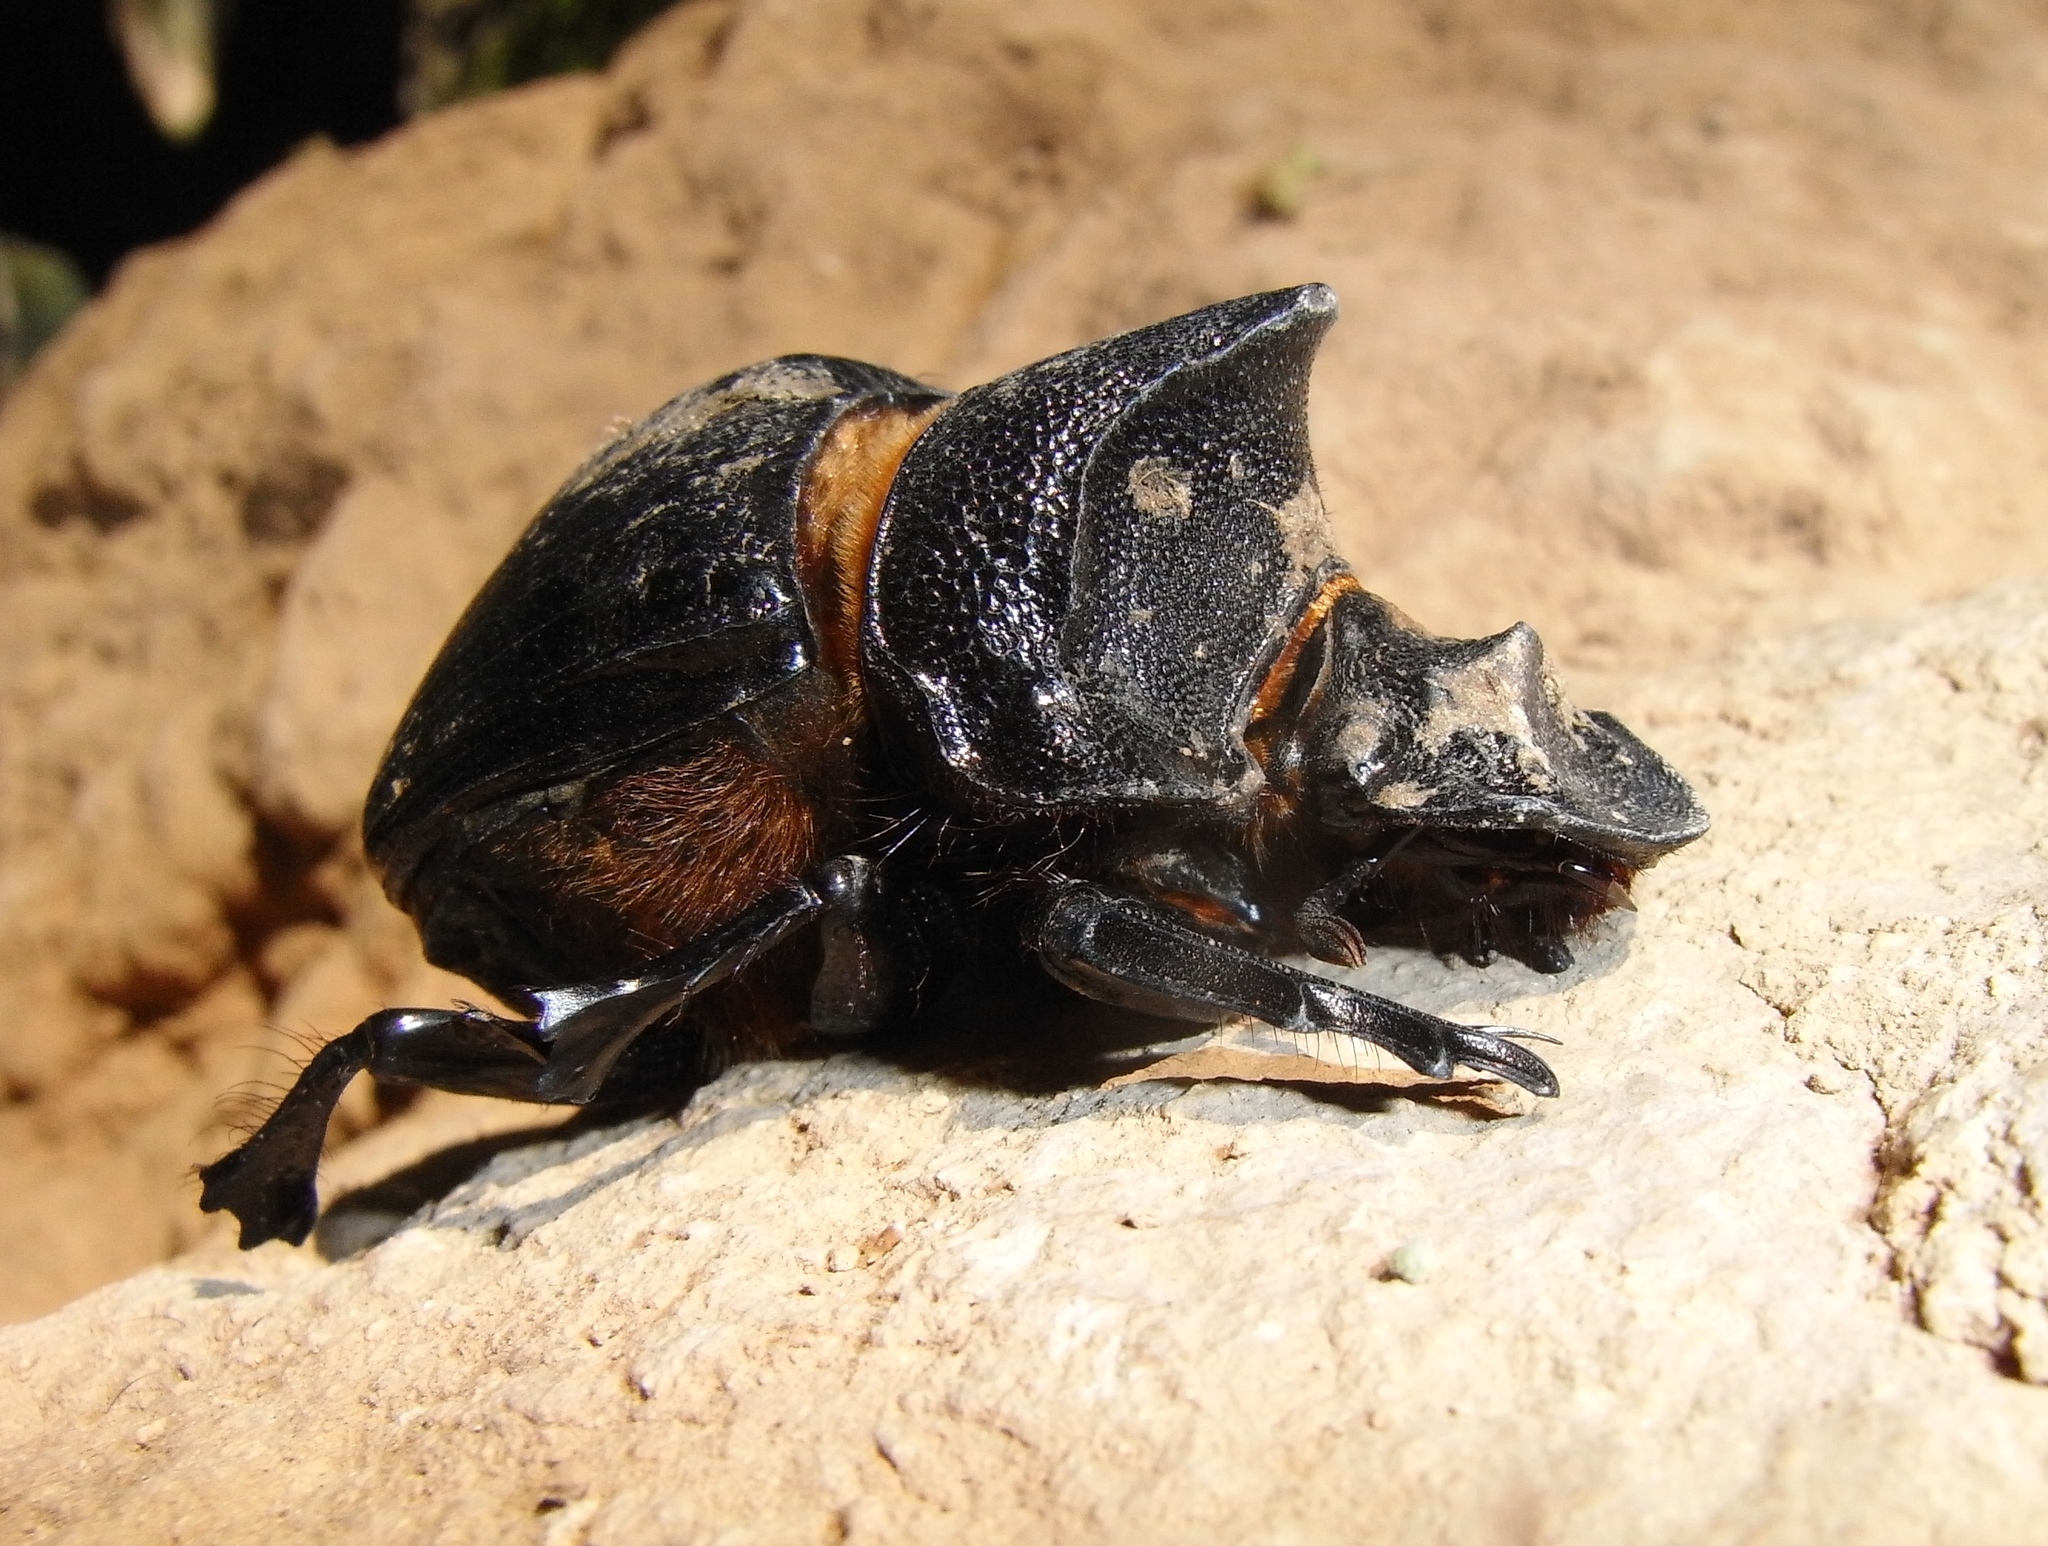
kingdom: Animalia
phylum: Arthropoda
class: Insecta
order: Coleoptera
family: Scarabaeidae
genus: Heliocopris
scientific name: Heliocopris gigas
